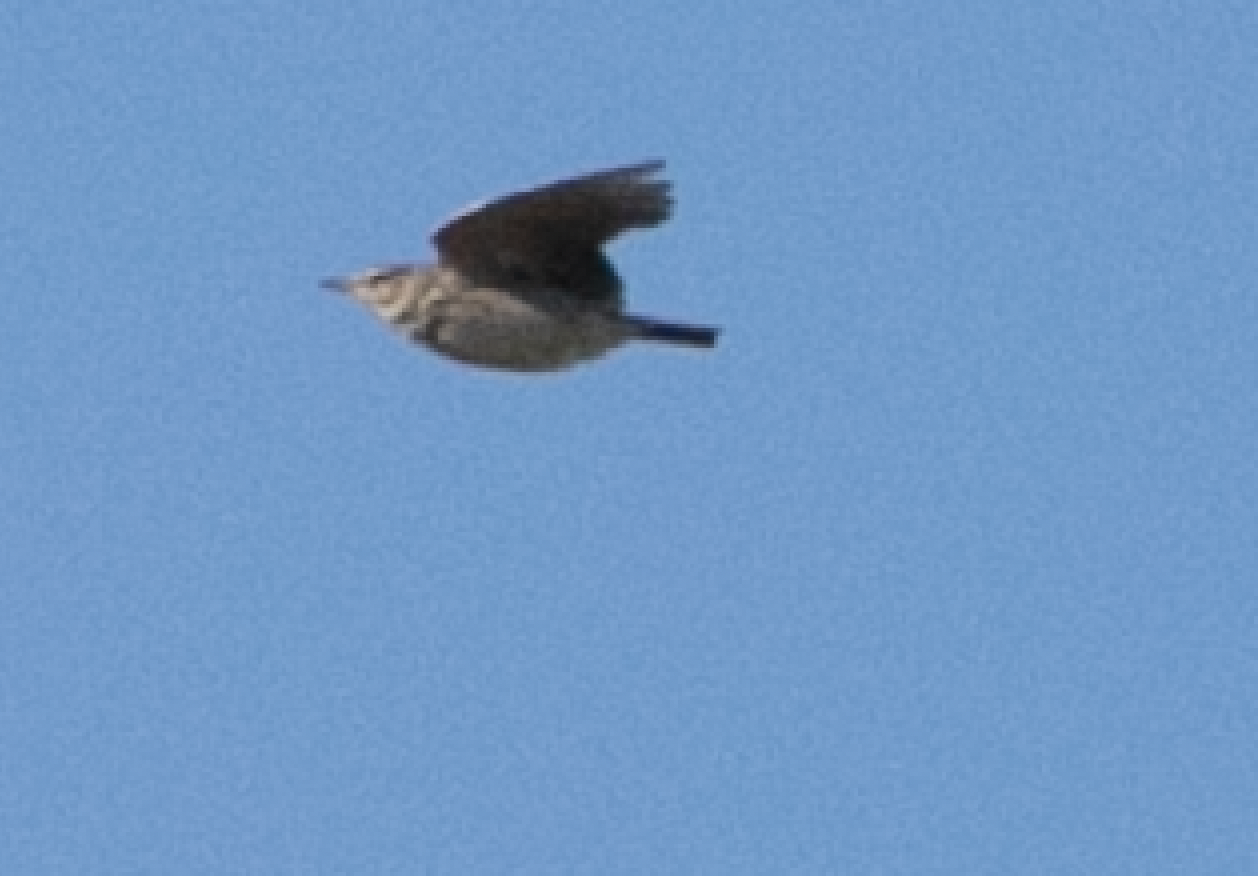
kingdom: Animalia
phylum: Chordata
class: Aves
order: Passeriformes
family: Alaudidae
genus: Galerida
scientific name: Galerida cristata
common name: Crested lark
